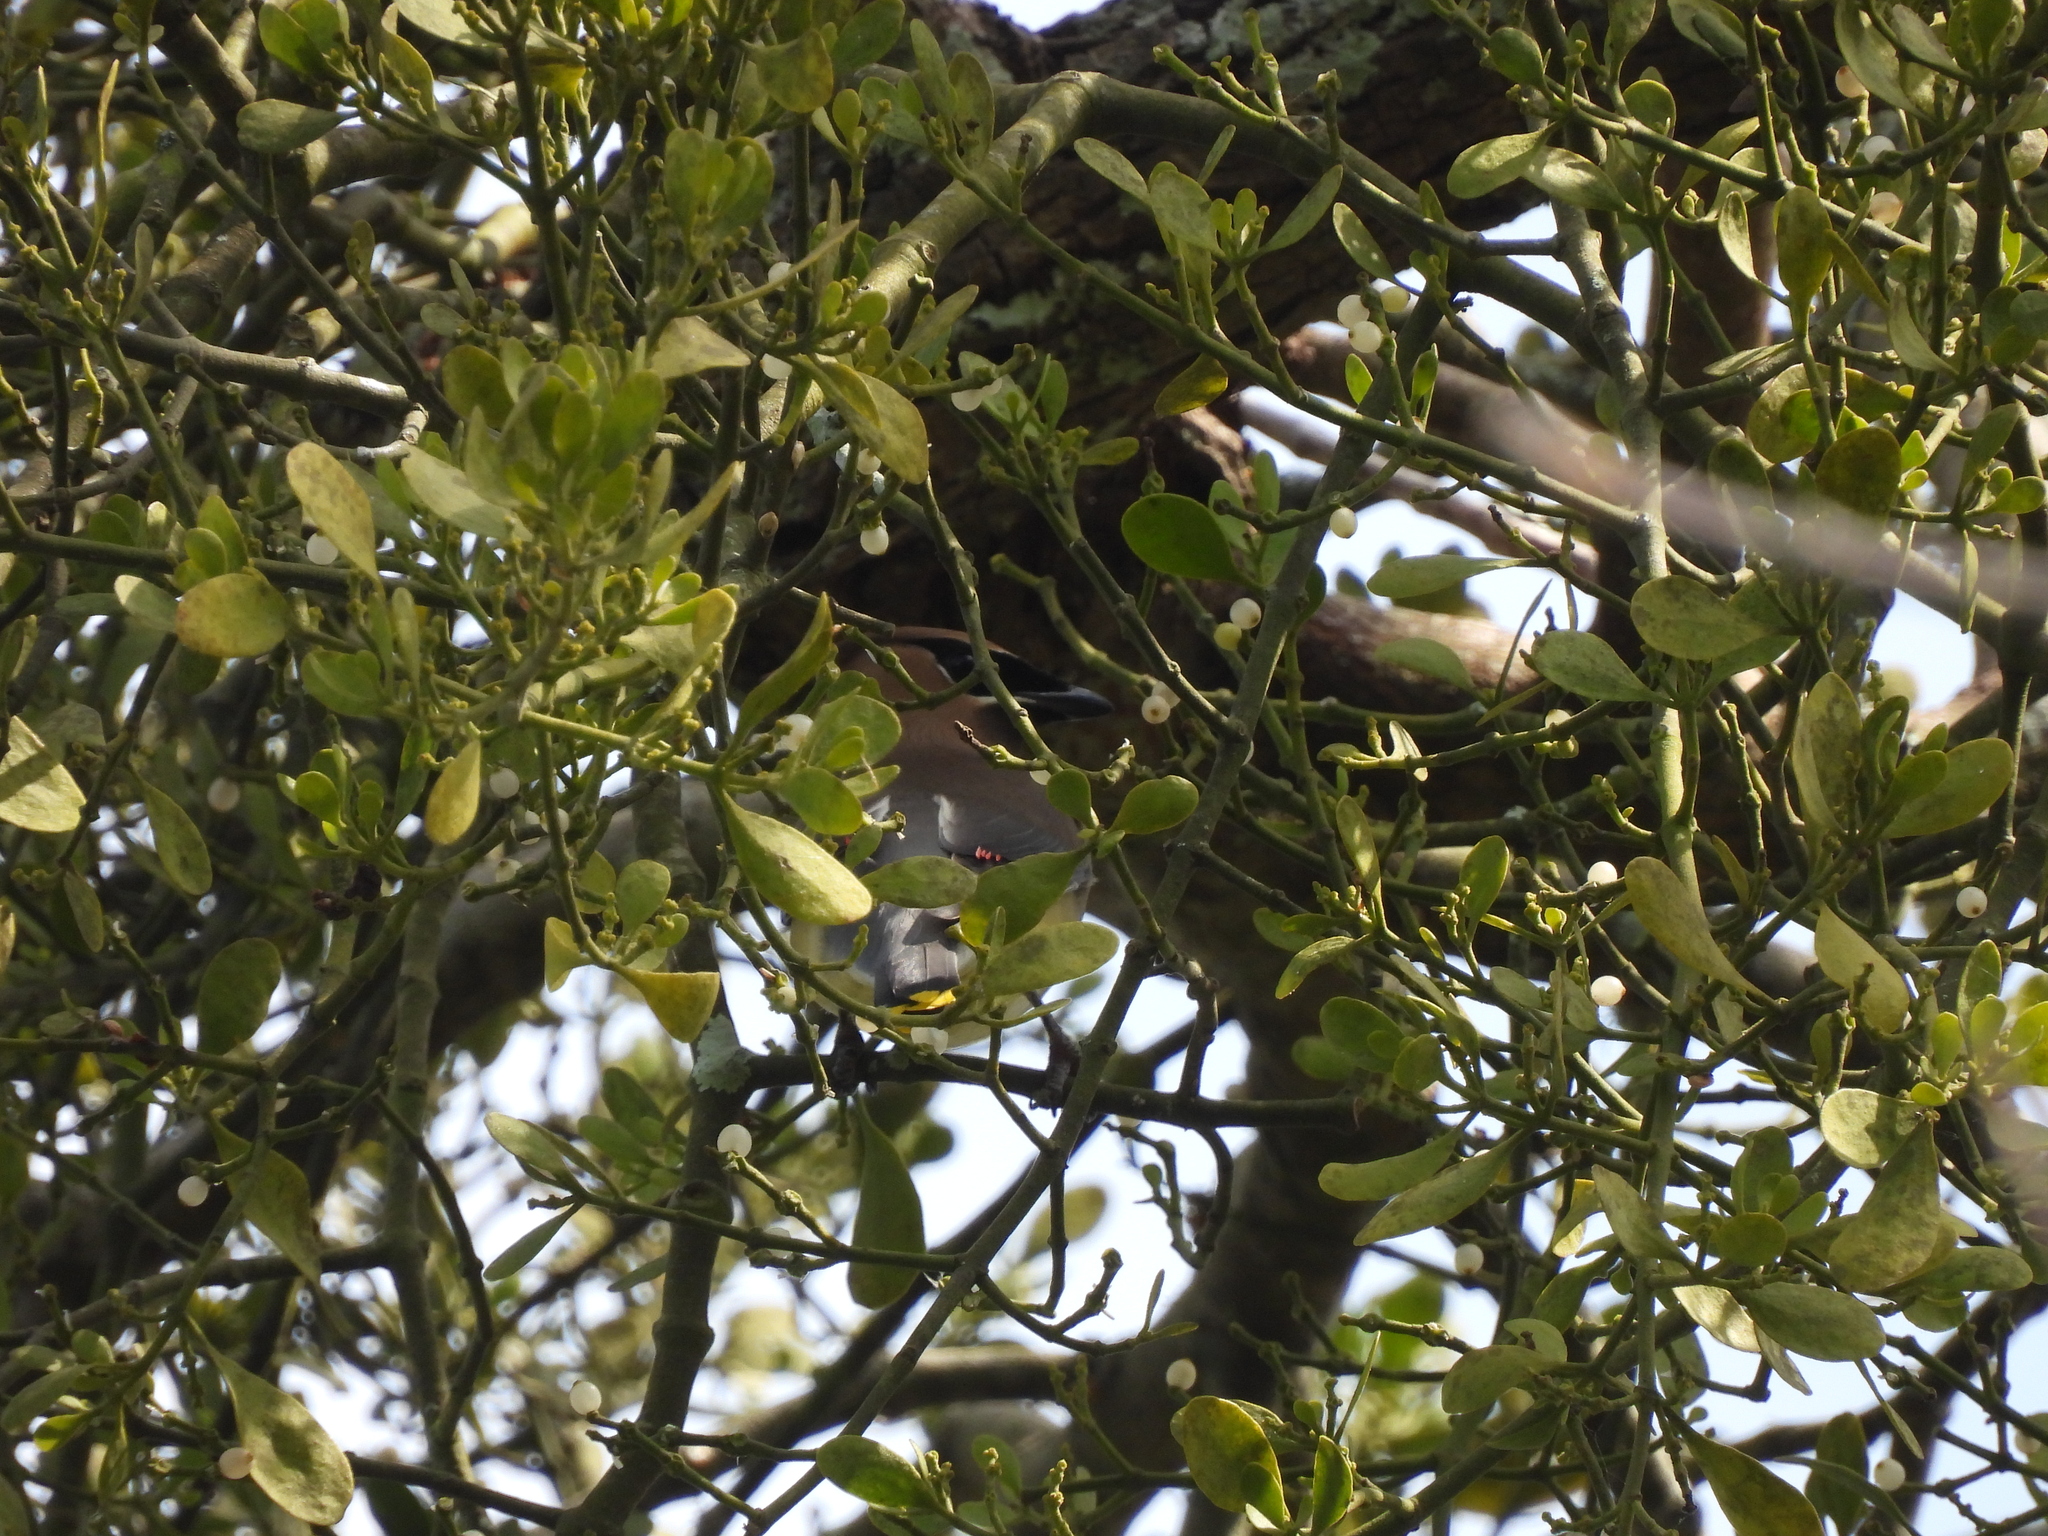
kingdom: Animalia
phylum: Chordata
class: Aves
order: Passeriformes
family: Bombycillidae
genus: Bombycilla
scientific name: Bombycilla cedrorum
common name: Cedar waxwing
